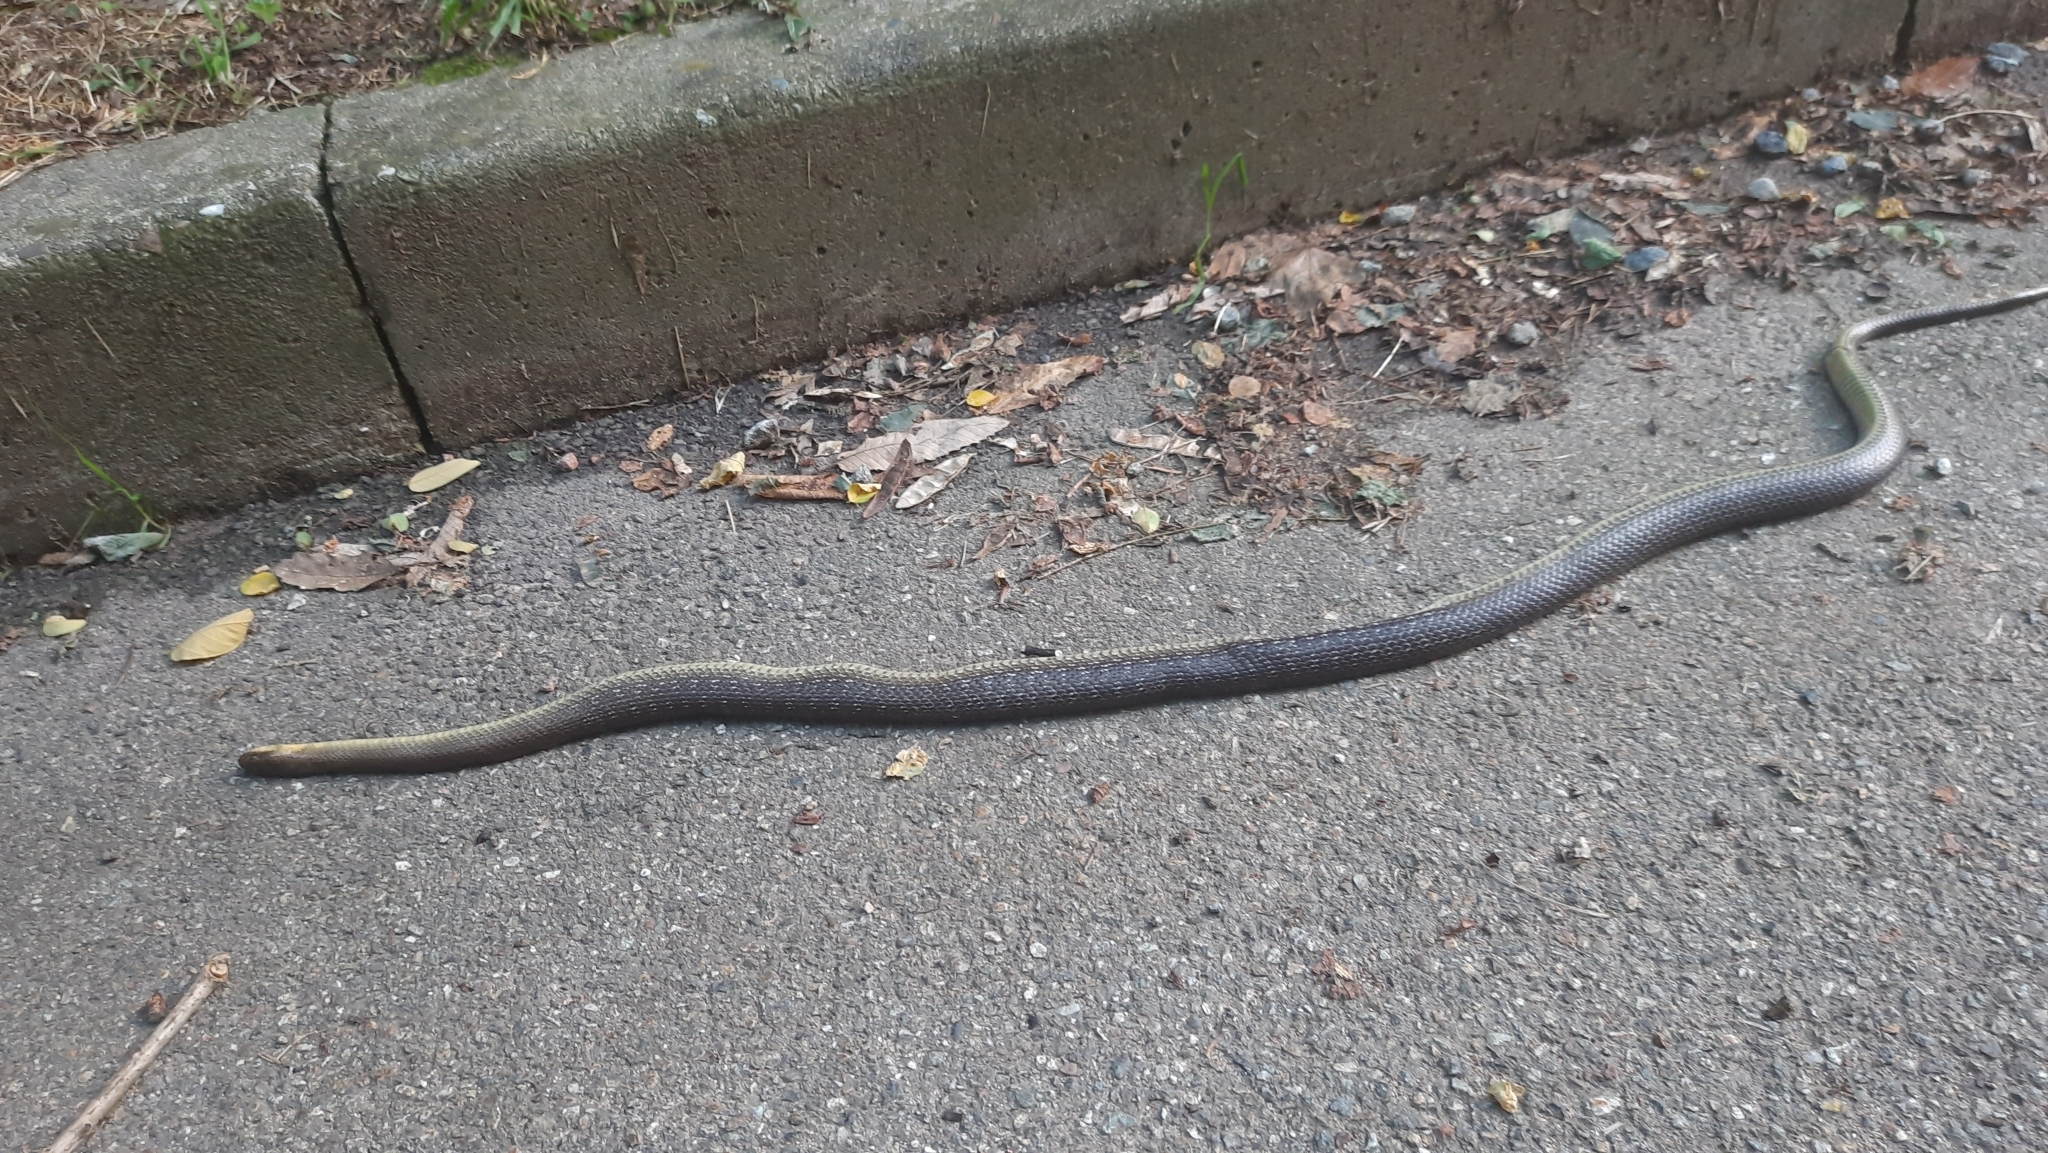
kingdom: Animalia
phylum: Chordata
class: Squamata
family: Colubridae
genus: Zamenis
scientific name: Zamenis longissimus
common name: Aesculapean snake
